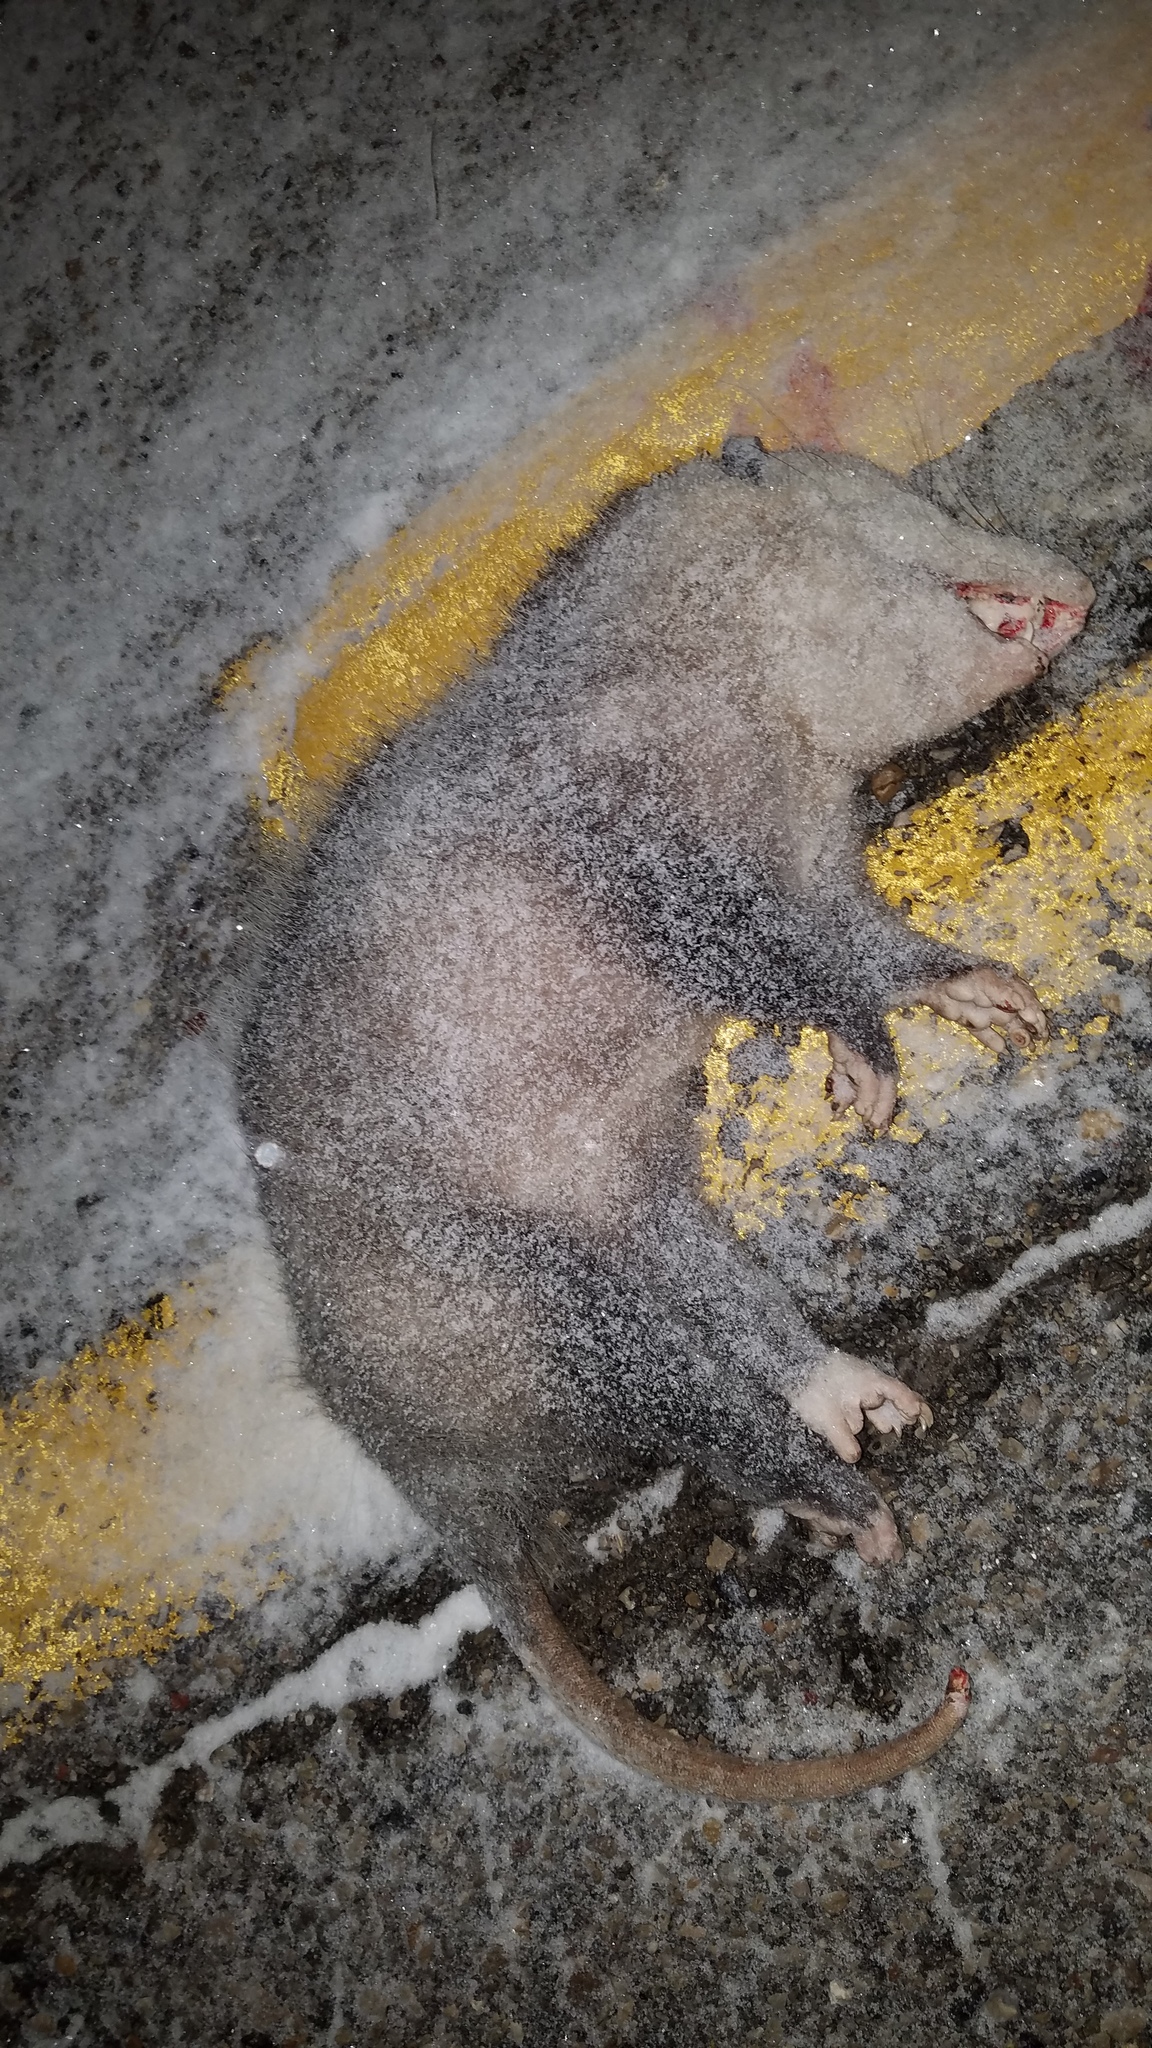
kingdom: Animalia
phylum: Chordata
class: Mammalia
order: Didelphimorphia
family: Didelphidae
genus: Didelphis
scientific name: Didelphis virginiana
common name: Virginia opossum
